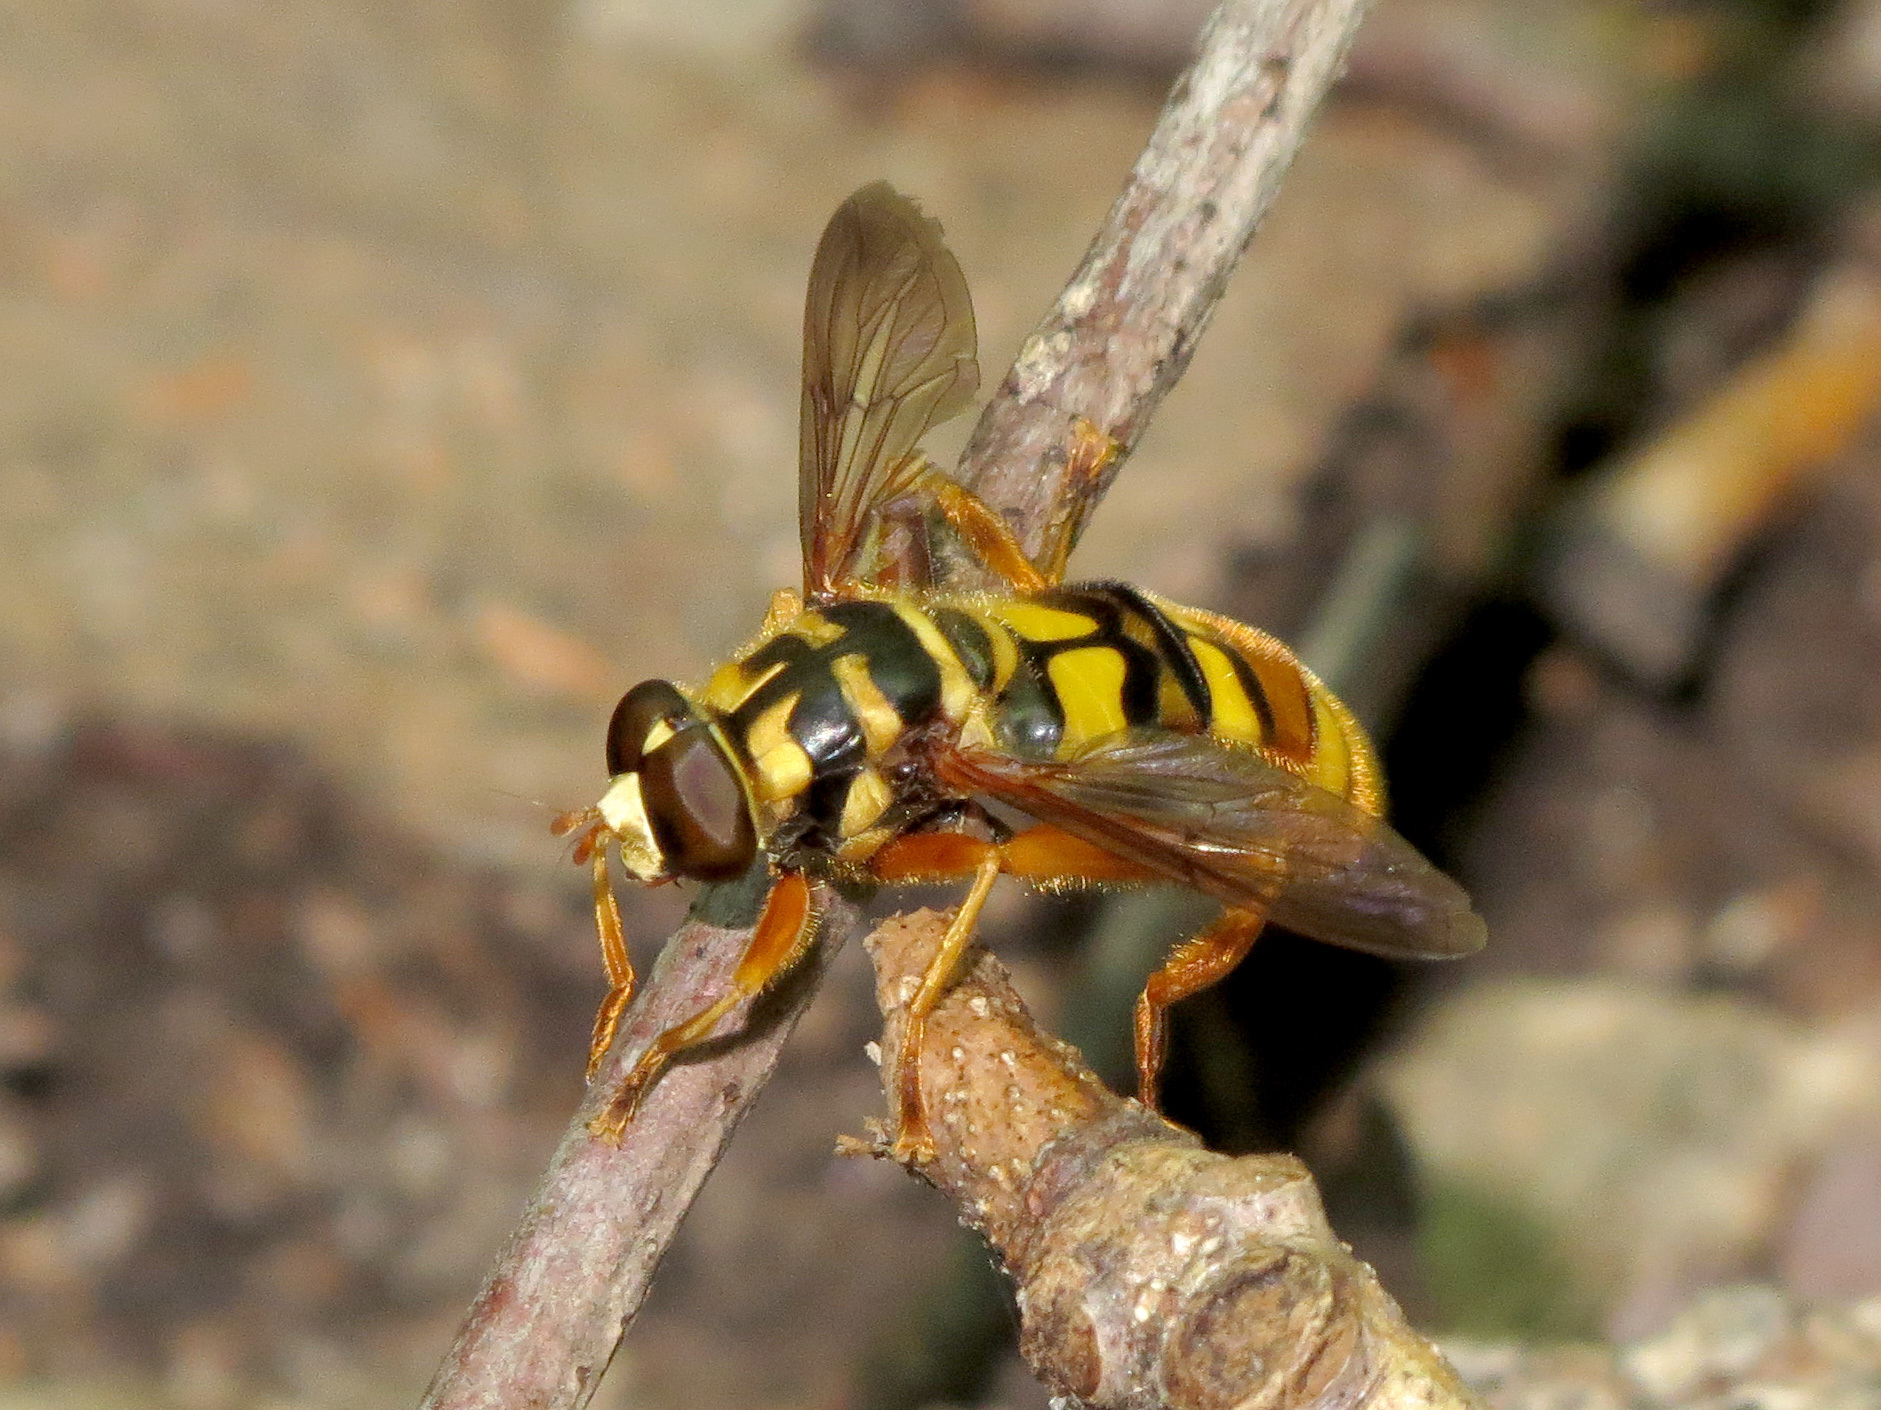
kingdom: Animalia
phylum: Arthropoda
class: Insecta
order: Diptera
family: Syrphidae
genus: Milesia
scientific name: Milesia virginiensis
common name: Virginia giant
